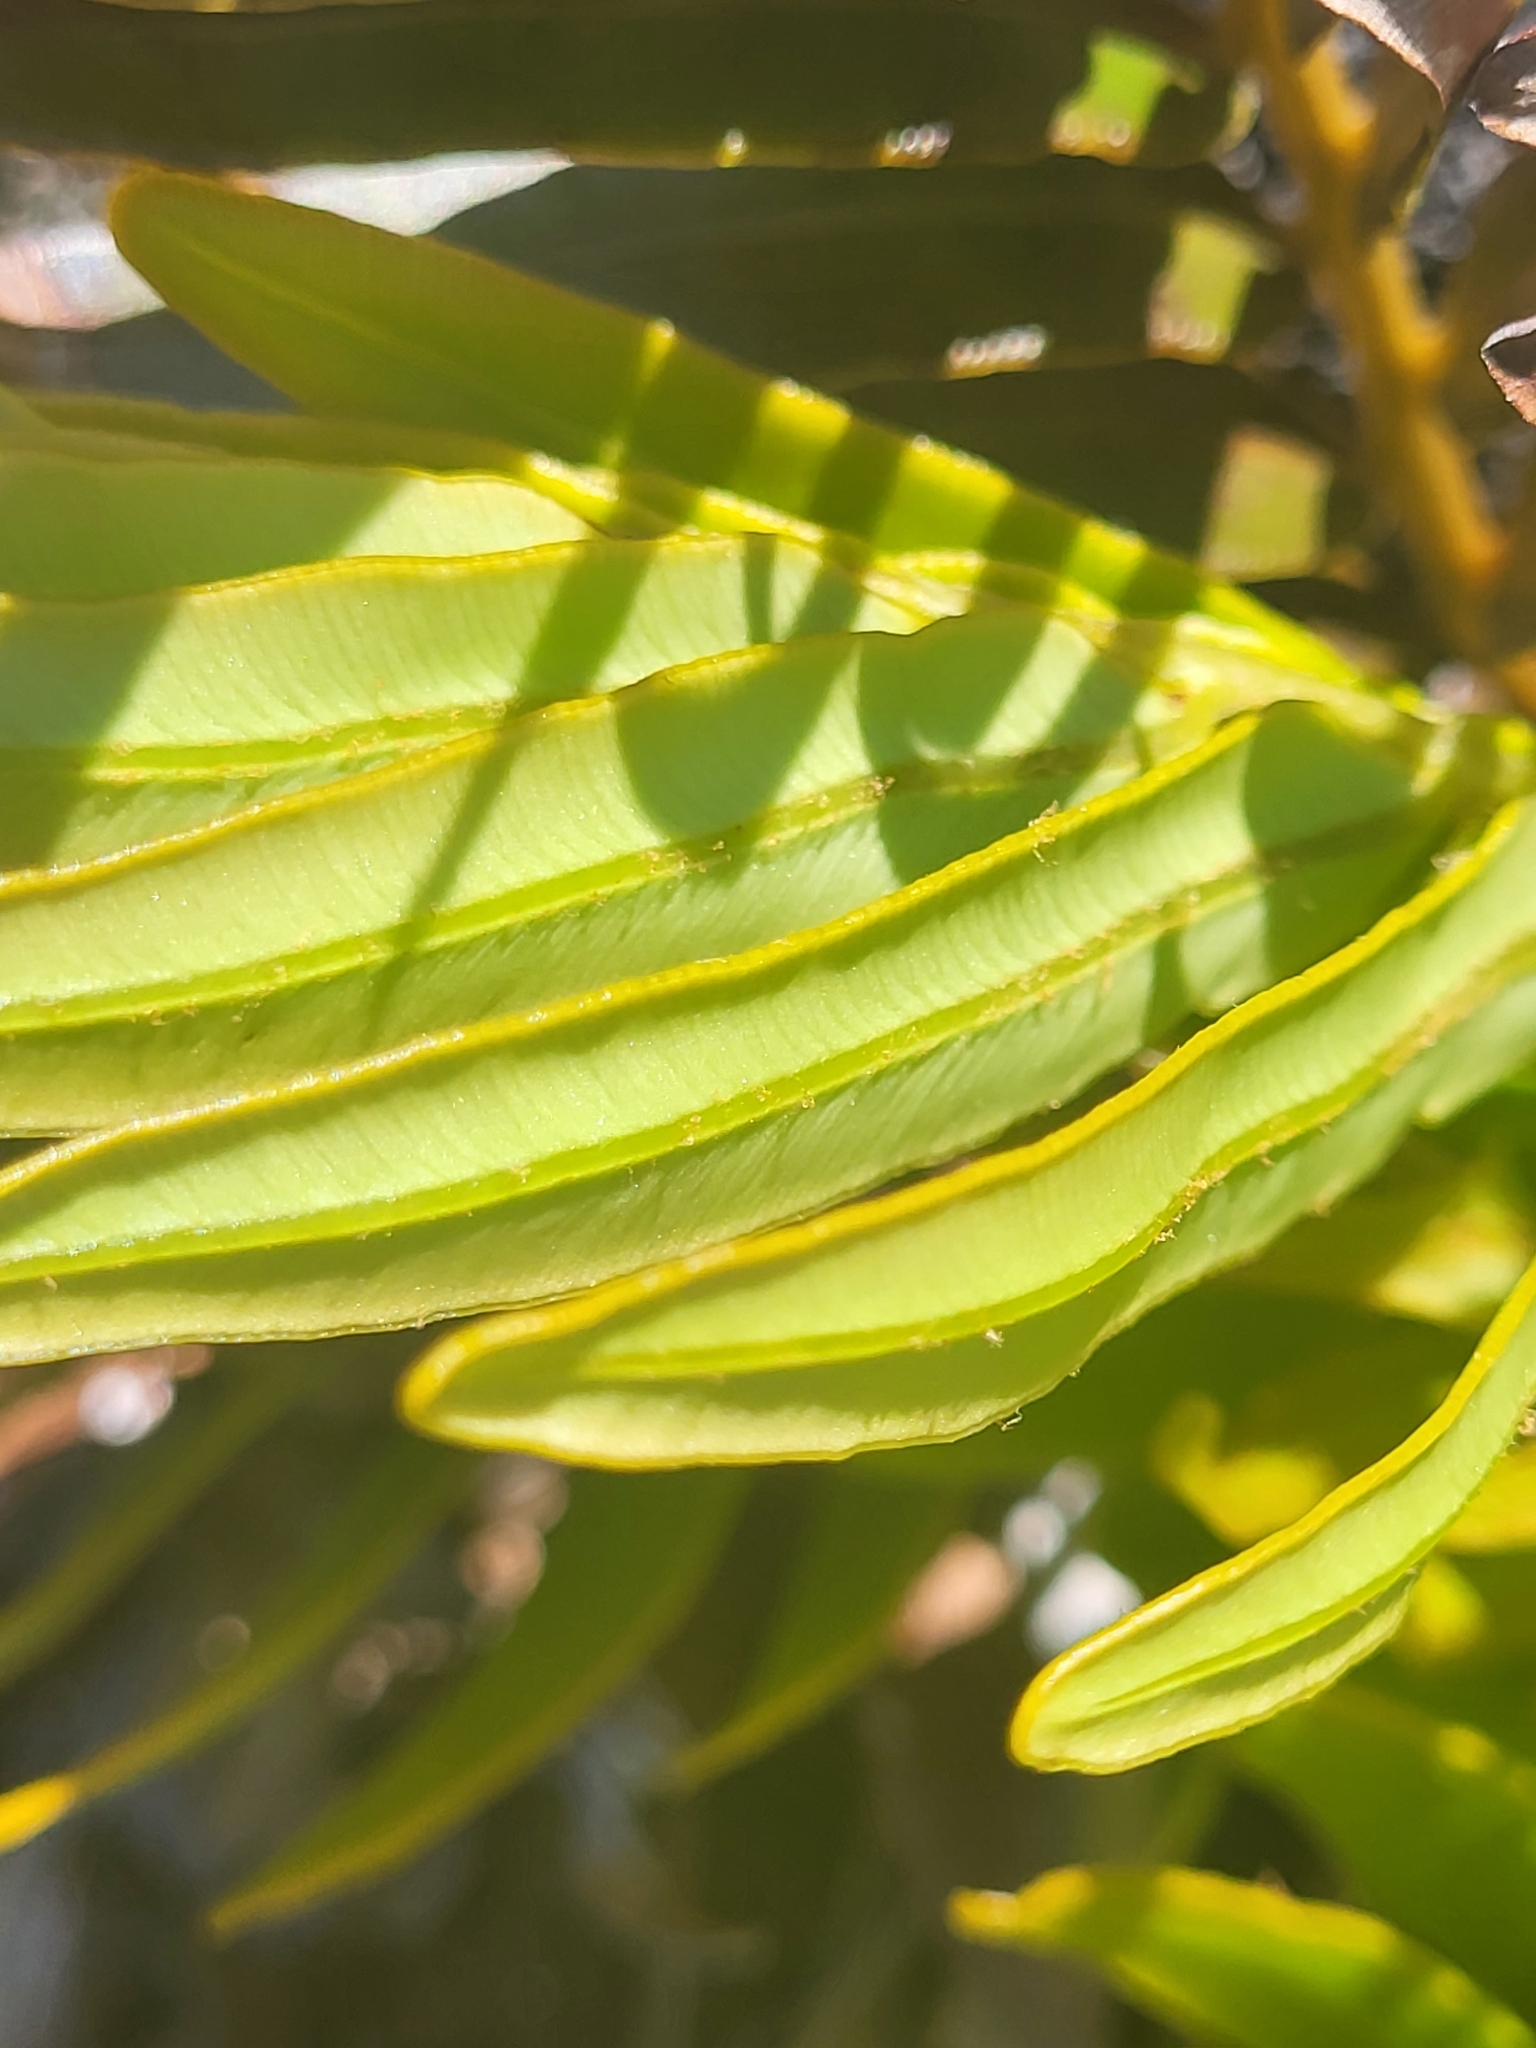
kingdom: Plantae
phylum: Tracheophyta
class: Polypodiopsida
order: Polypodiales
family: Blechnaceae
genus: Lomariocycas
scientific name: Lomariocycas tabularis
